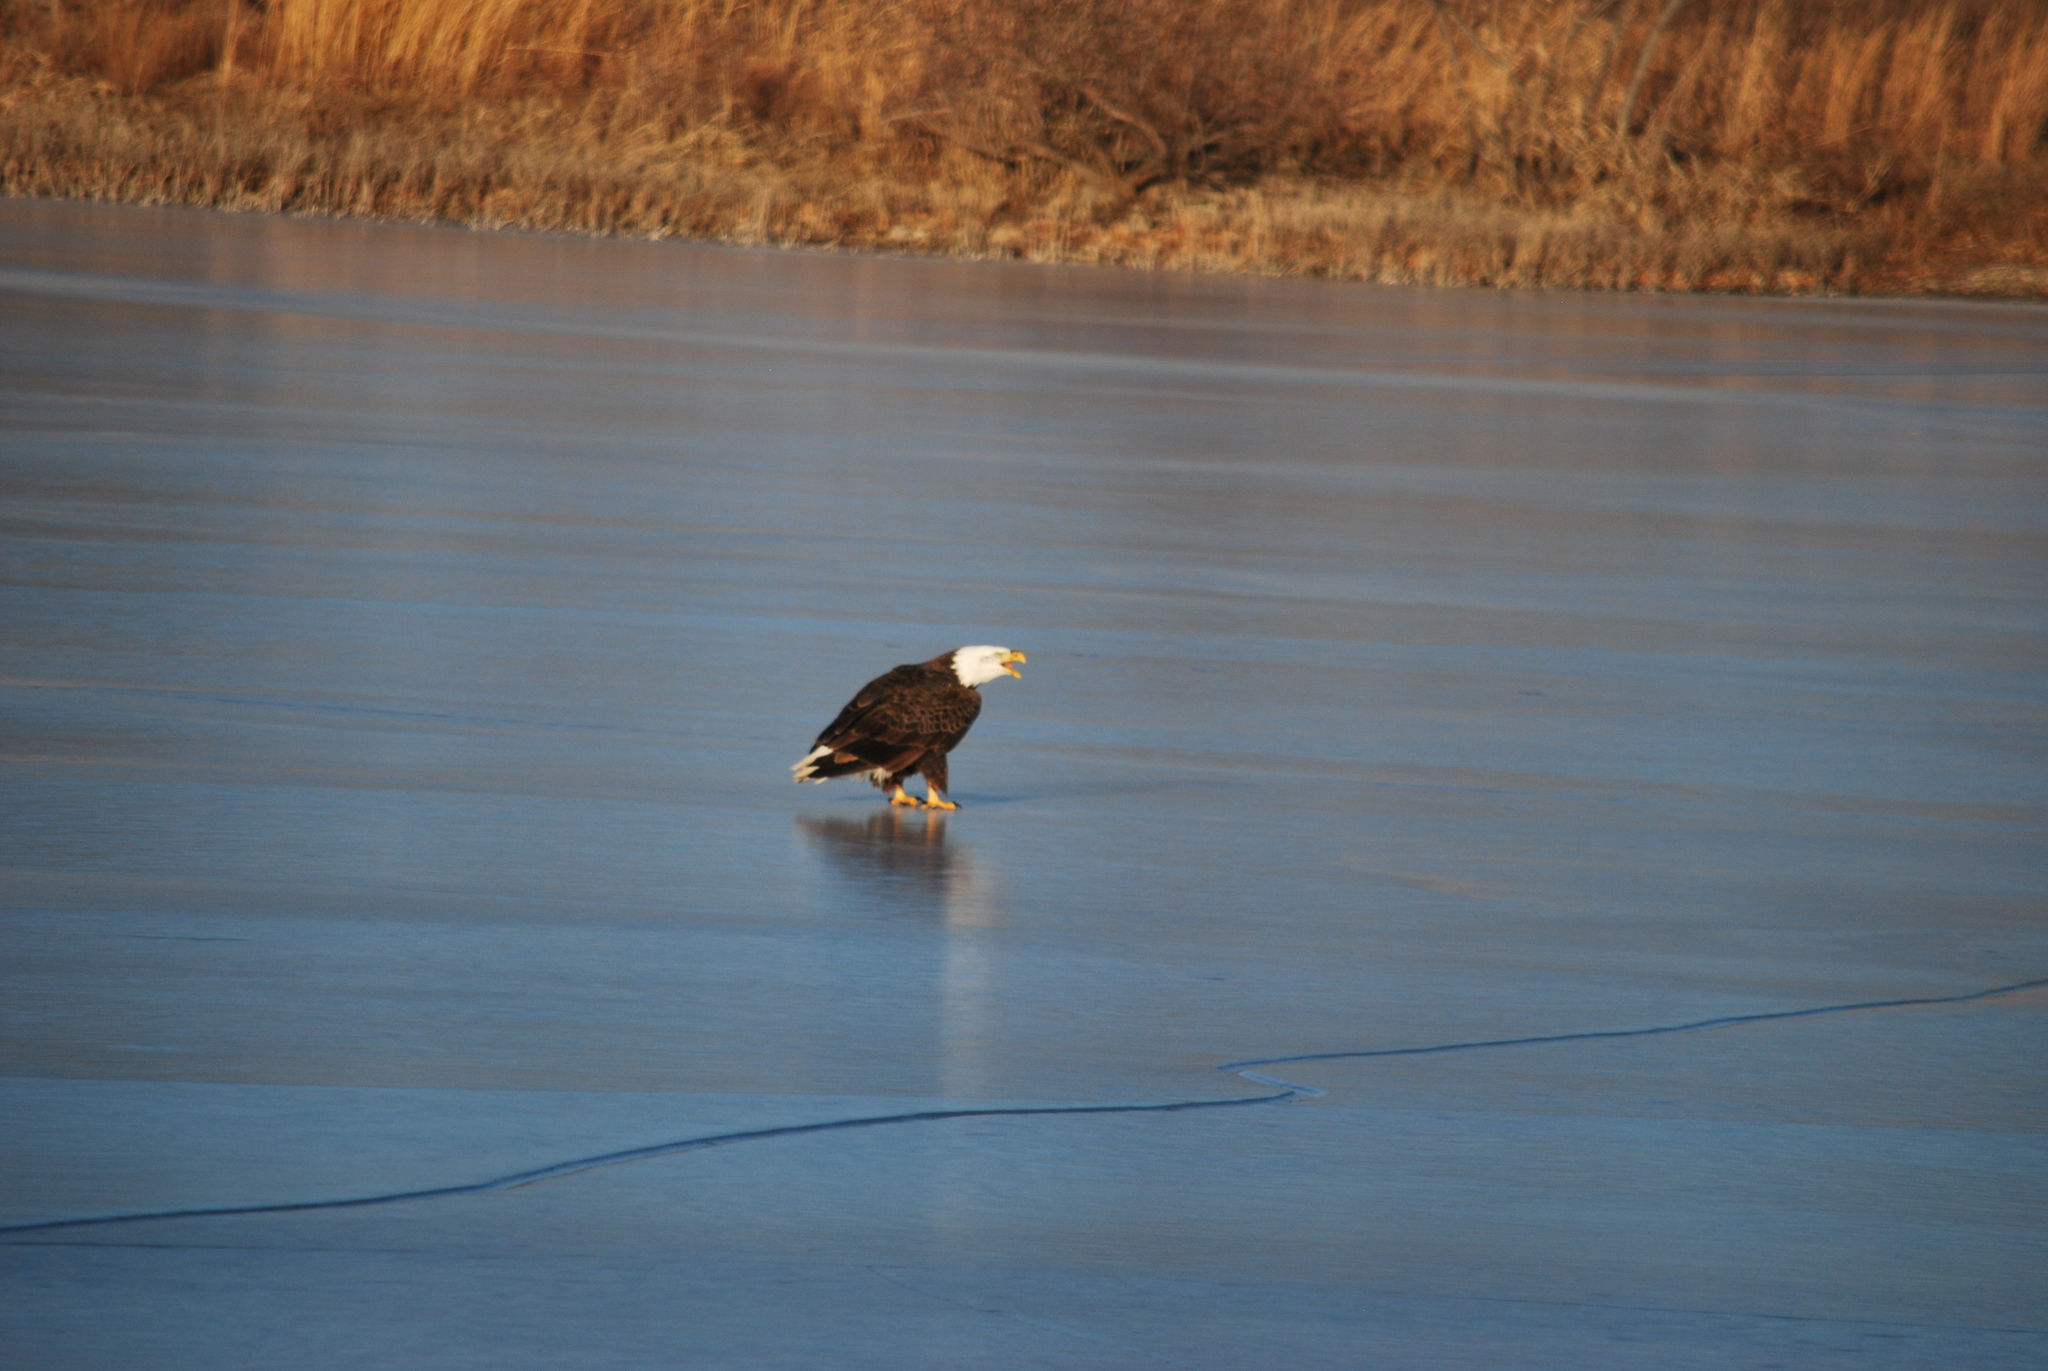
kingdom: Animalia
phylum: Chordata
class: Aves
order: Accipitriformes
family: Accipitridae
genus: Haliaeetus
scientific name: Haliaeetus leucocephalus
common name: Bald eagle
